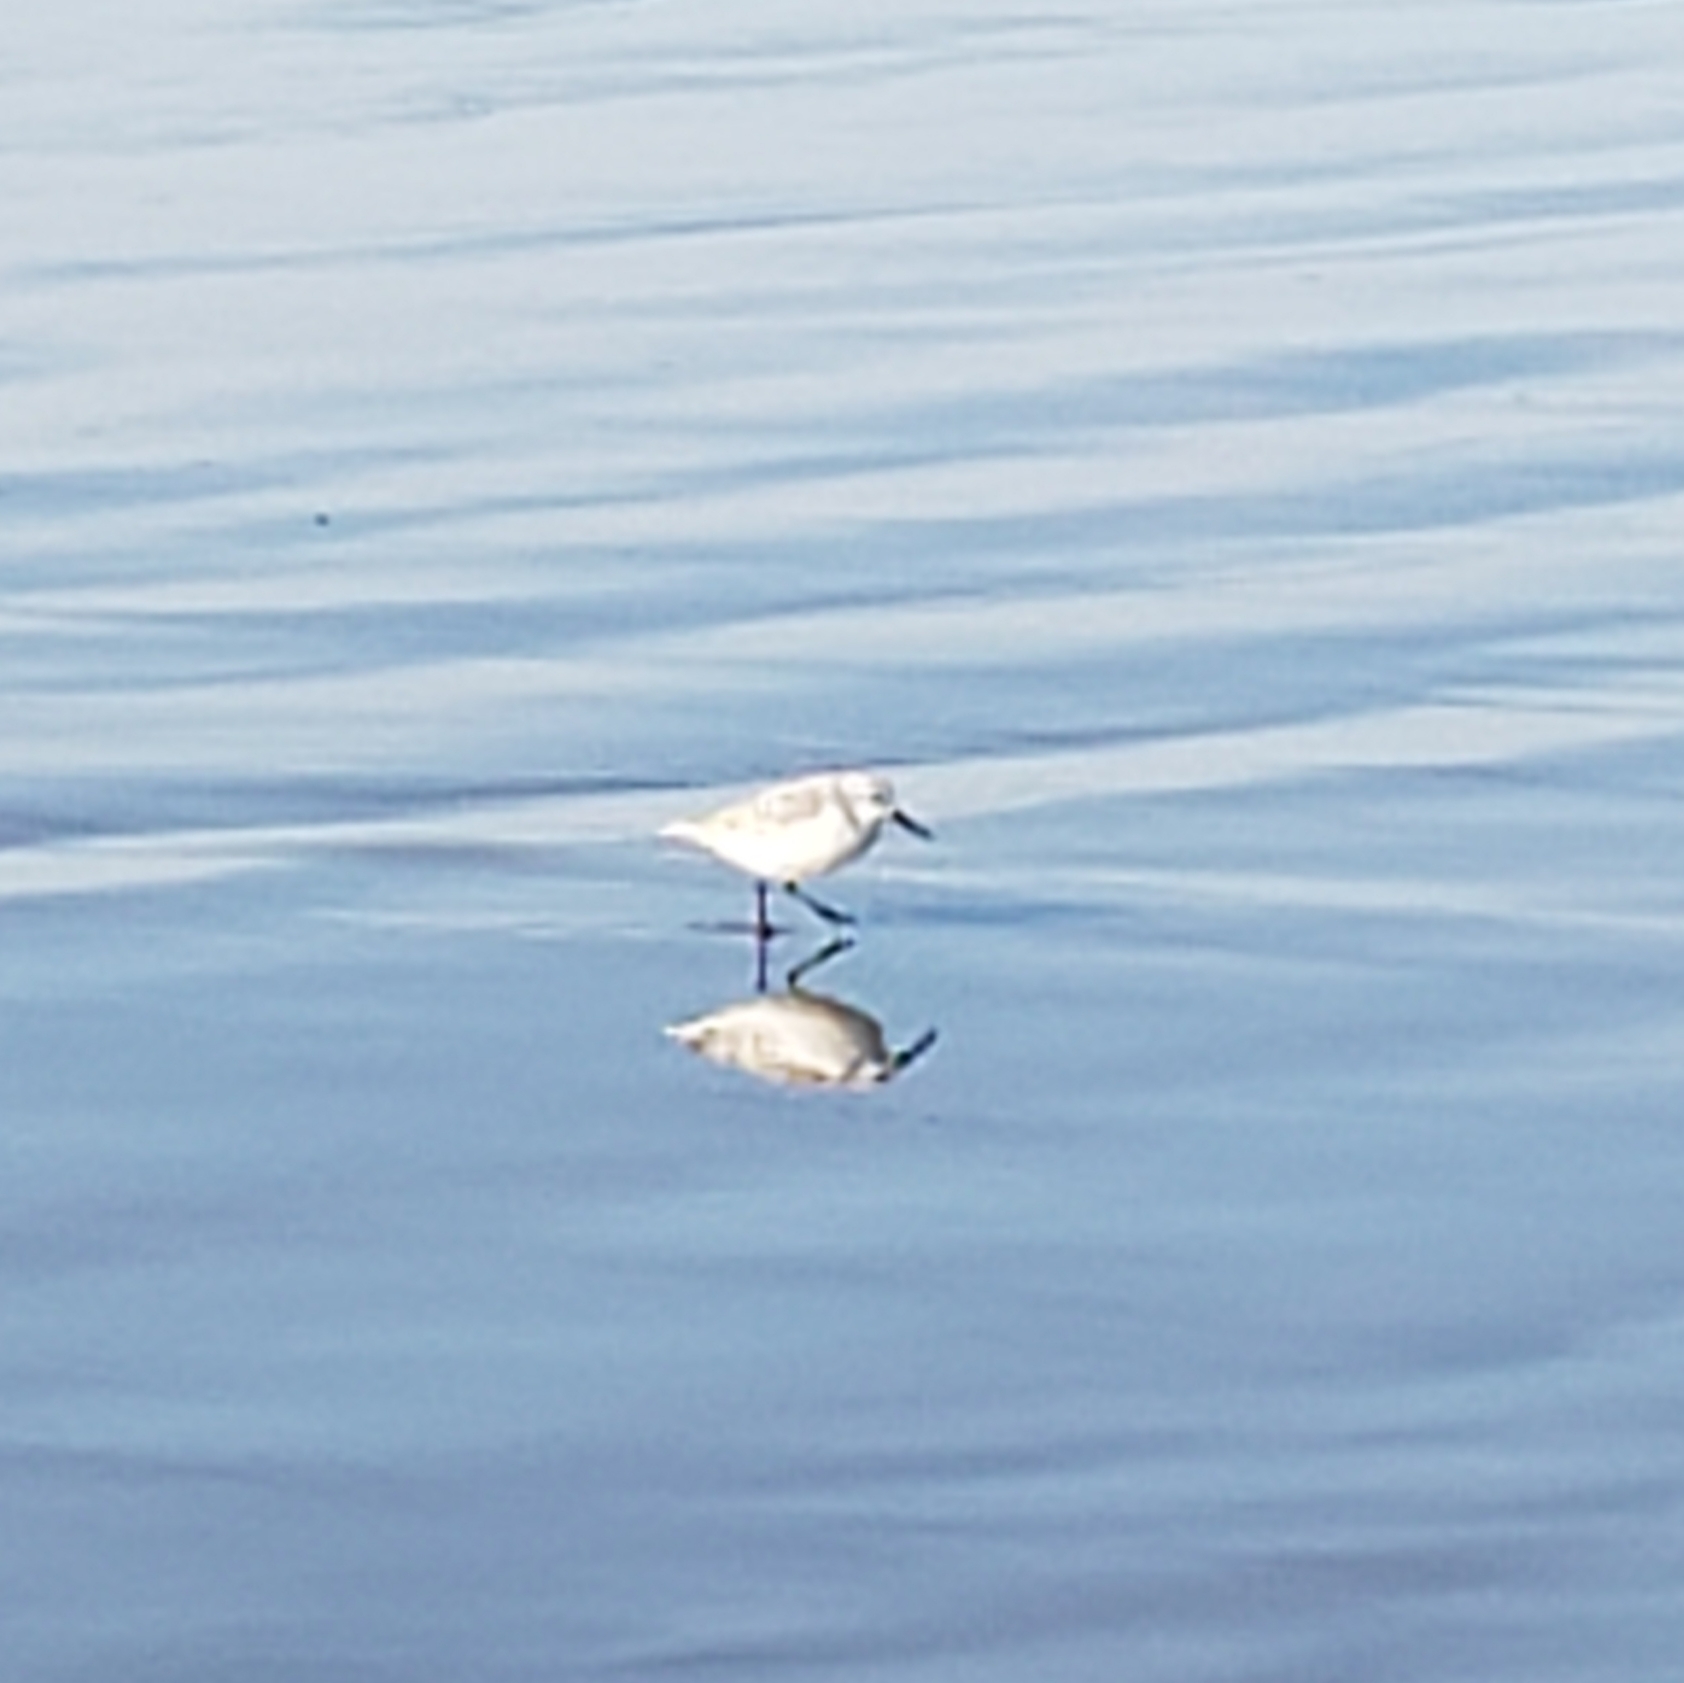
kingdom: Animalia
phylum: Chordata
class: Aves
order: Charadriiformes
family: Scolopacidae
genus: Calidris
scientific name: Calidris alba
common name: Sanderling
